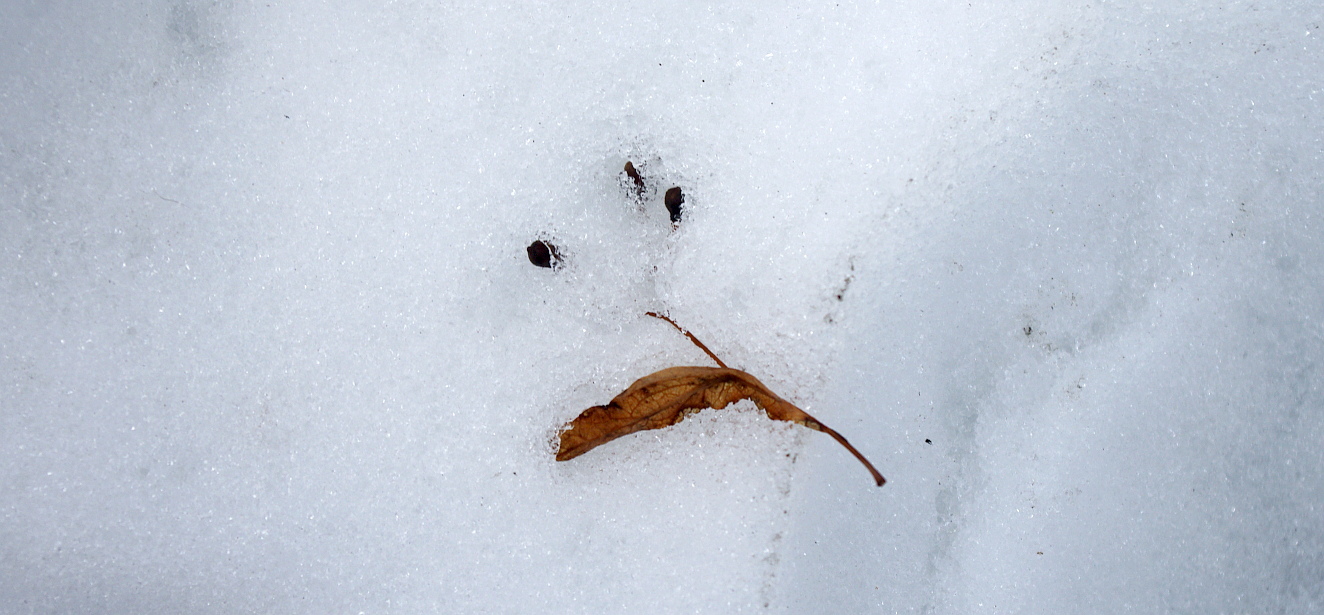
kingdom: Plantae
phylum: Tracheophyta
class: Magnoliopsida
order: Malvales
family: Malvaceae
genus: Tilia
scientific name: Tilia cordata
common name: Small-leaved lime
